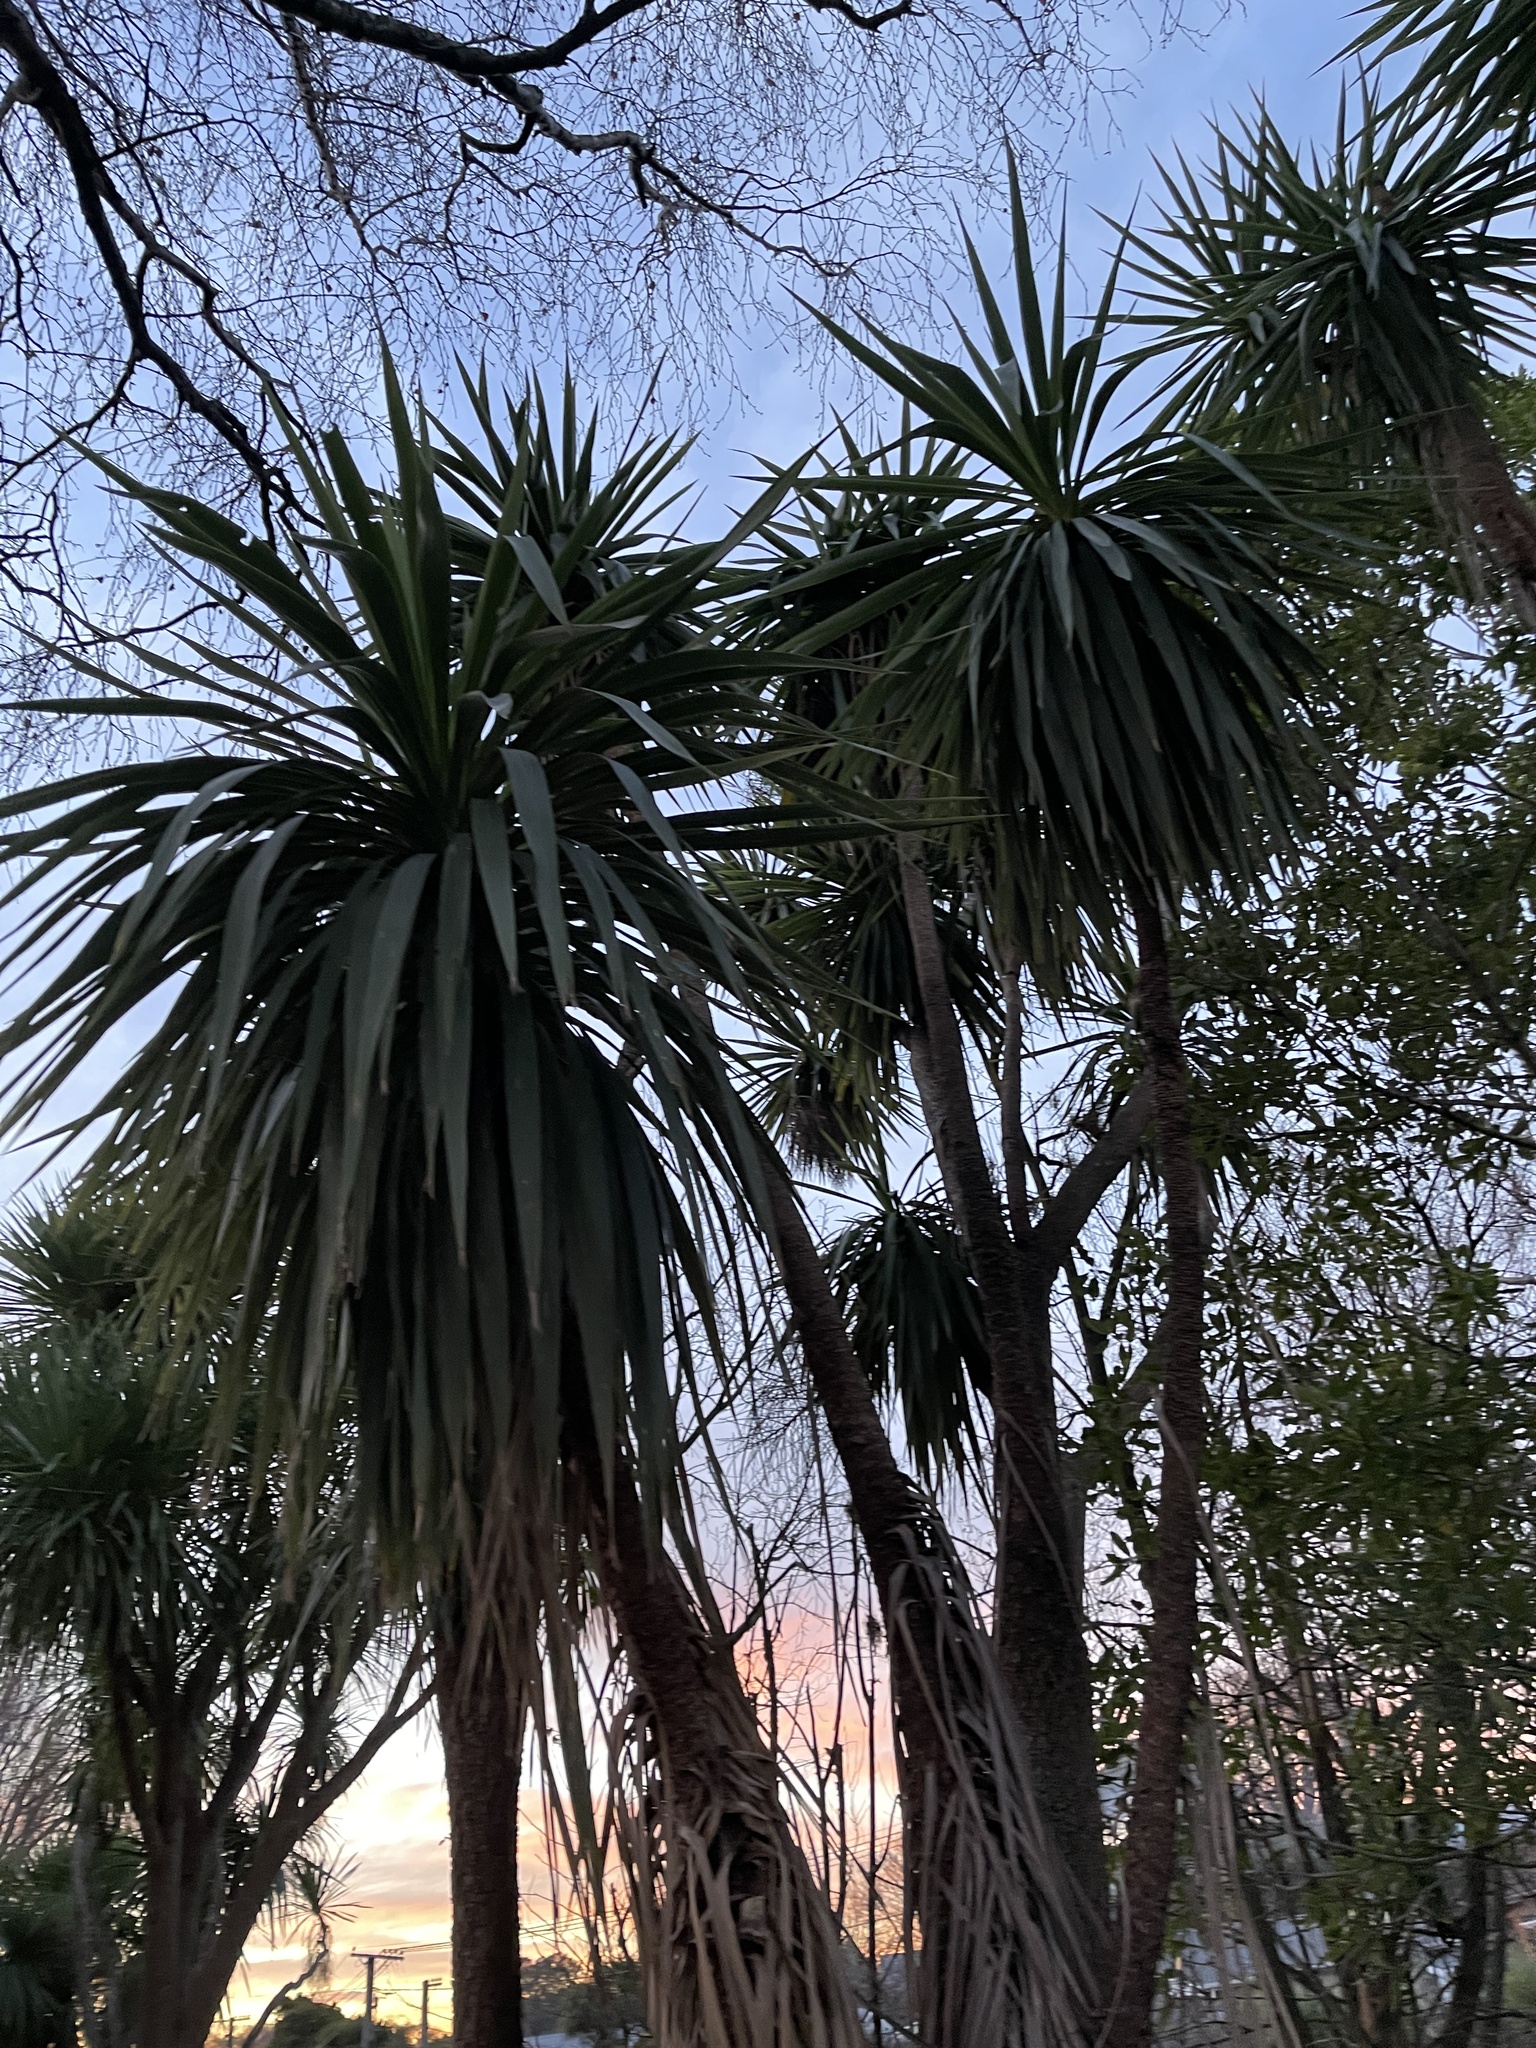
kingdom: Plantae
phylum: Tracheophyta
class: Liliopsida
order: Asparagales
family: Asparagaceae
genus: Cordyline
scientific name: Cordyline australis
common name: Cabbage-palm
